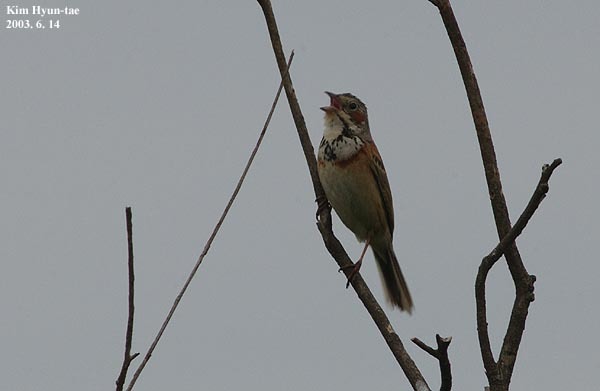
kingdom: Animalia
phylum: Chordata
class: Aves
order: Passeriformes
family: Emberizidae
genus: Emberiza
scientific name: Emberiza fucata
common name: Chestnut-eared bunting
